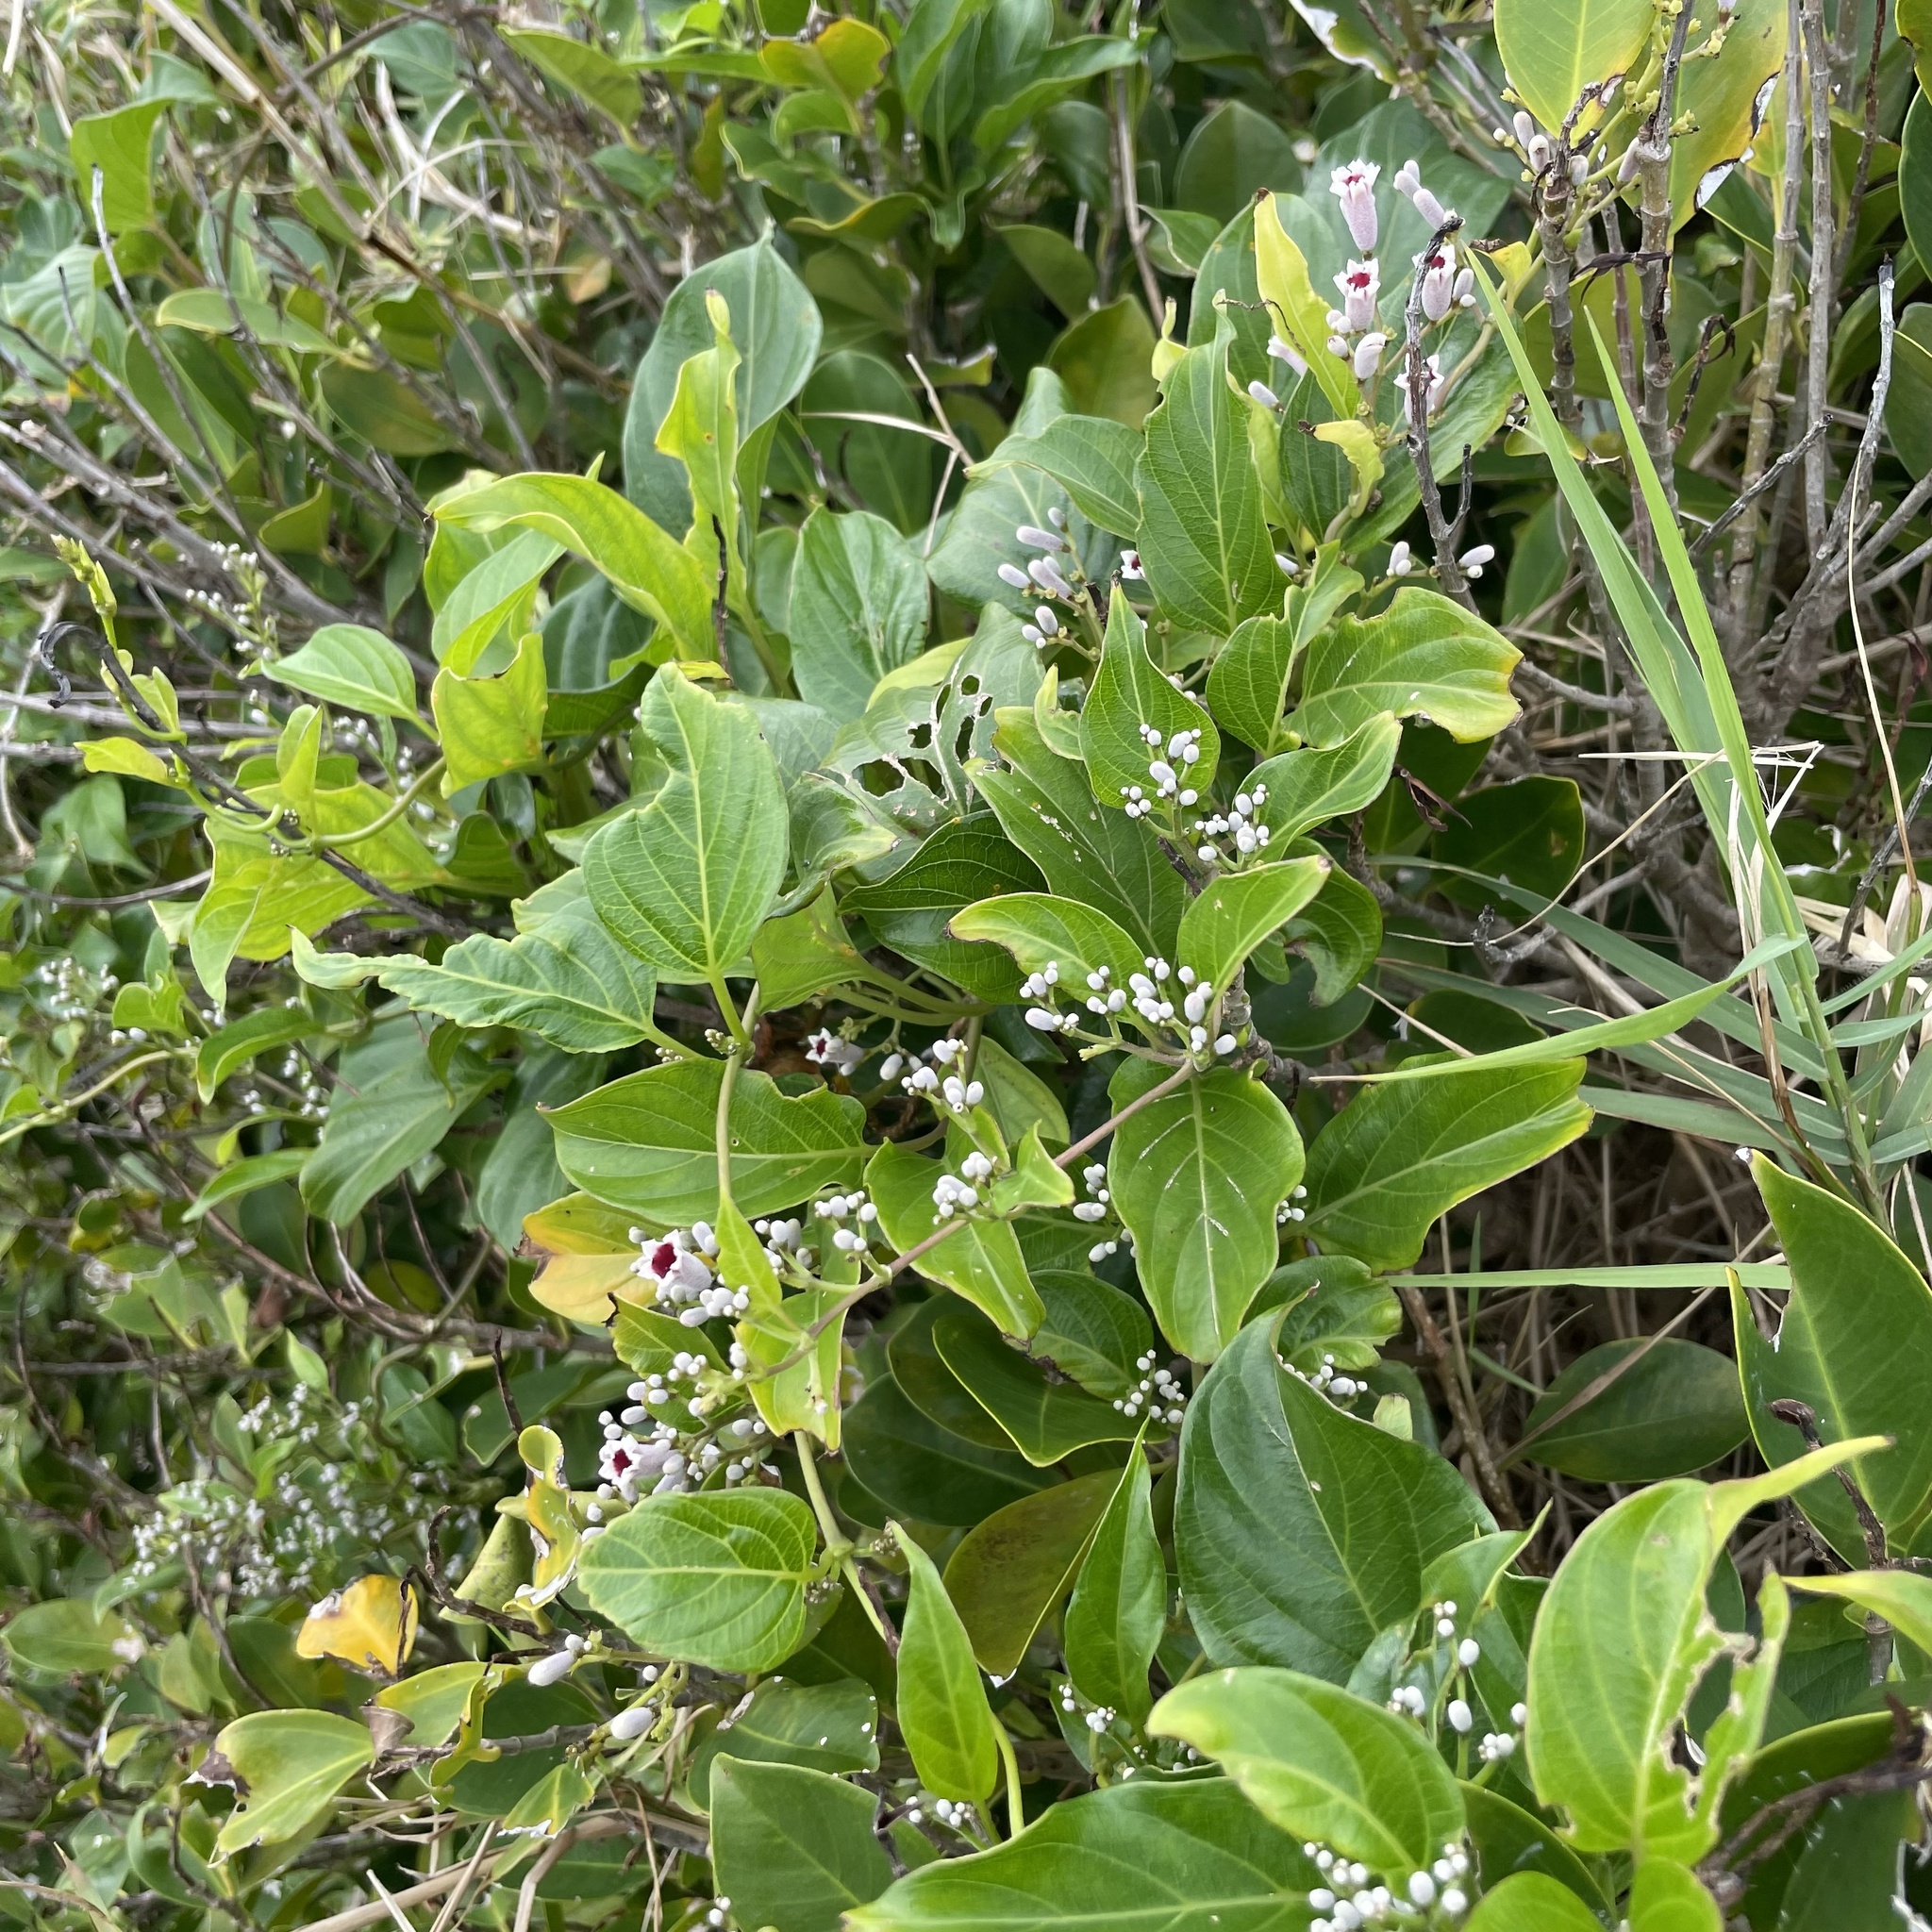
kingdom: Plantae
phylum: Tracheophyta
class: Magnoliopsida
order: Gentianales
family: Rubiaceae
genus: Paederia
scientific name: Paederia foetida
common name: Stinkvine
